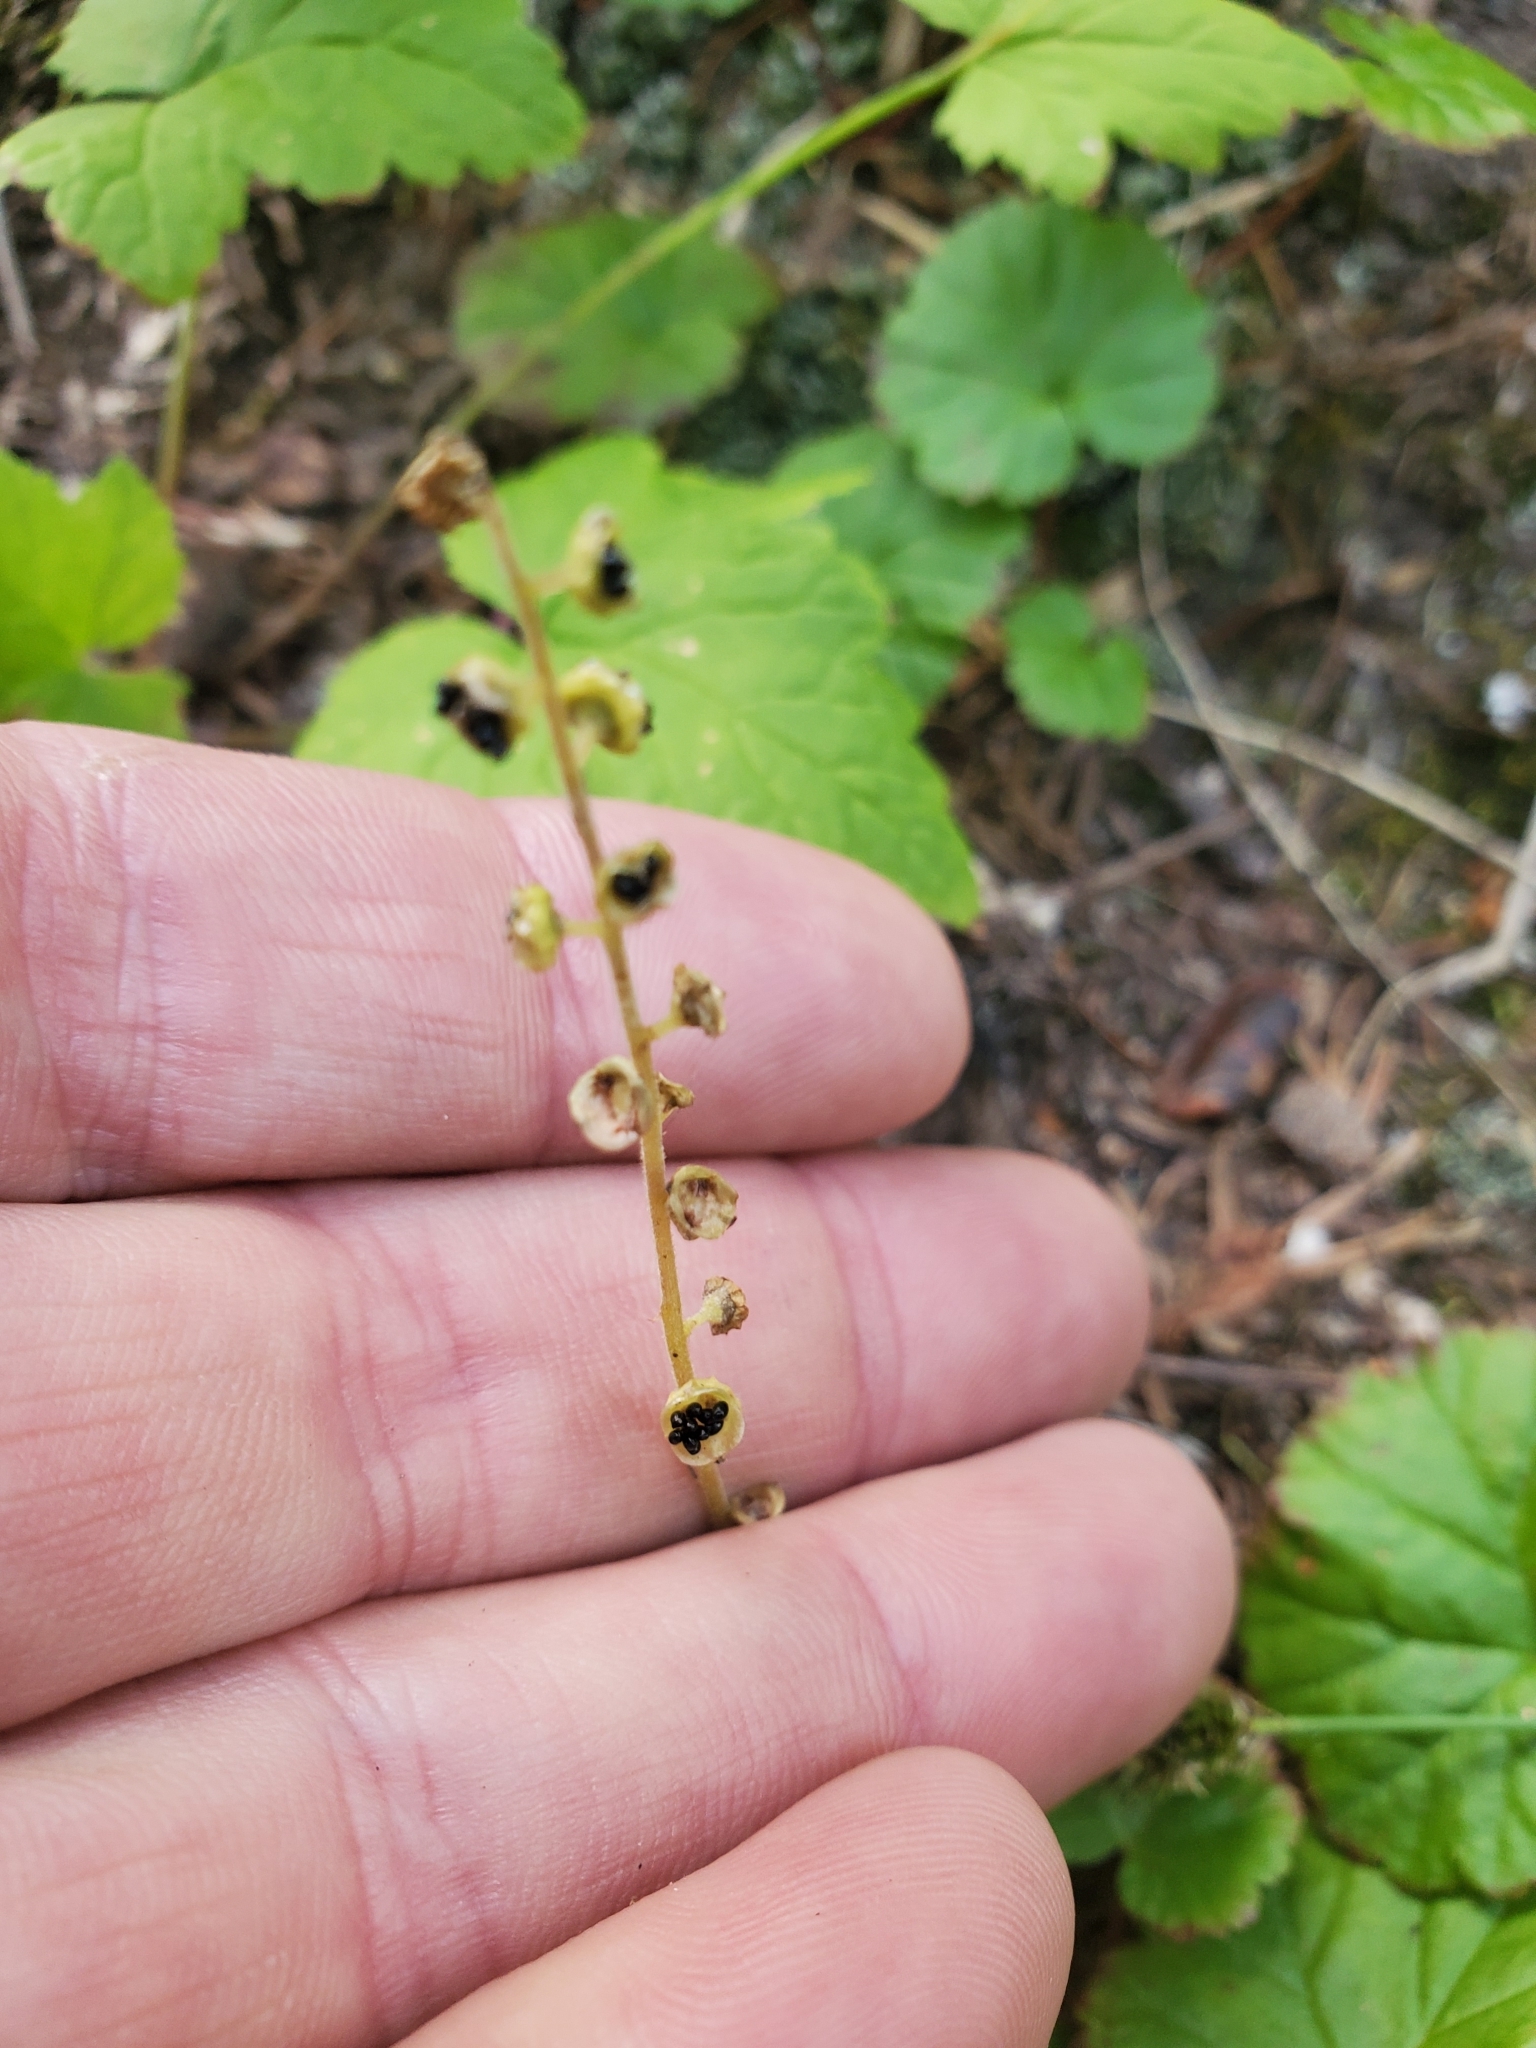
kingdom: Plantae
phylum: Tracheophyta
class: Magnoliopsida
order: Saxifragales
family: Saxifragaceae
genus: Brewerimitella
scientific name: Brewerimitella breweri
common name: Brewer's bishop's-cap
